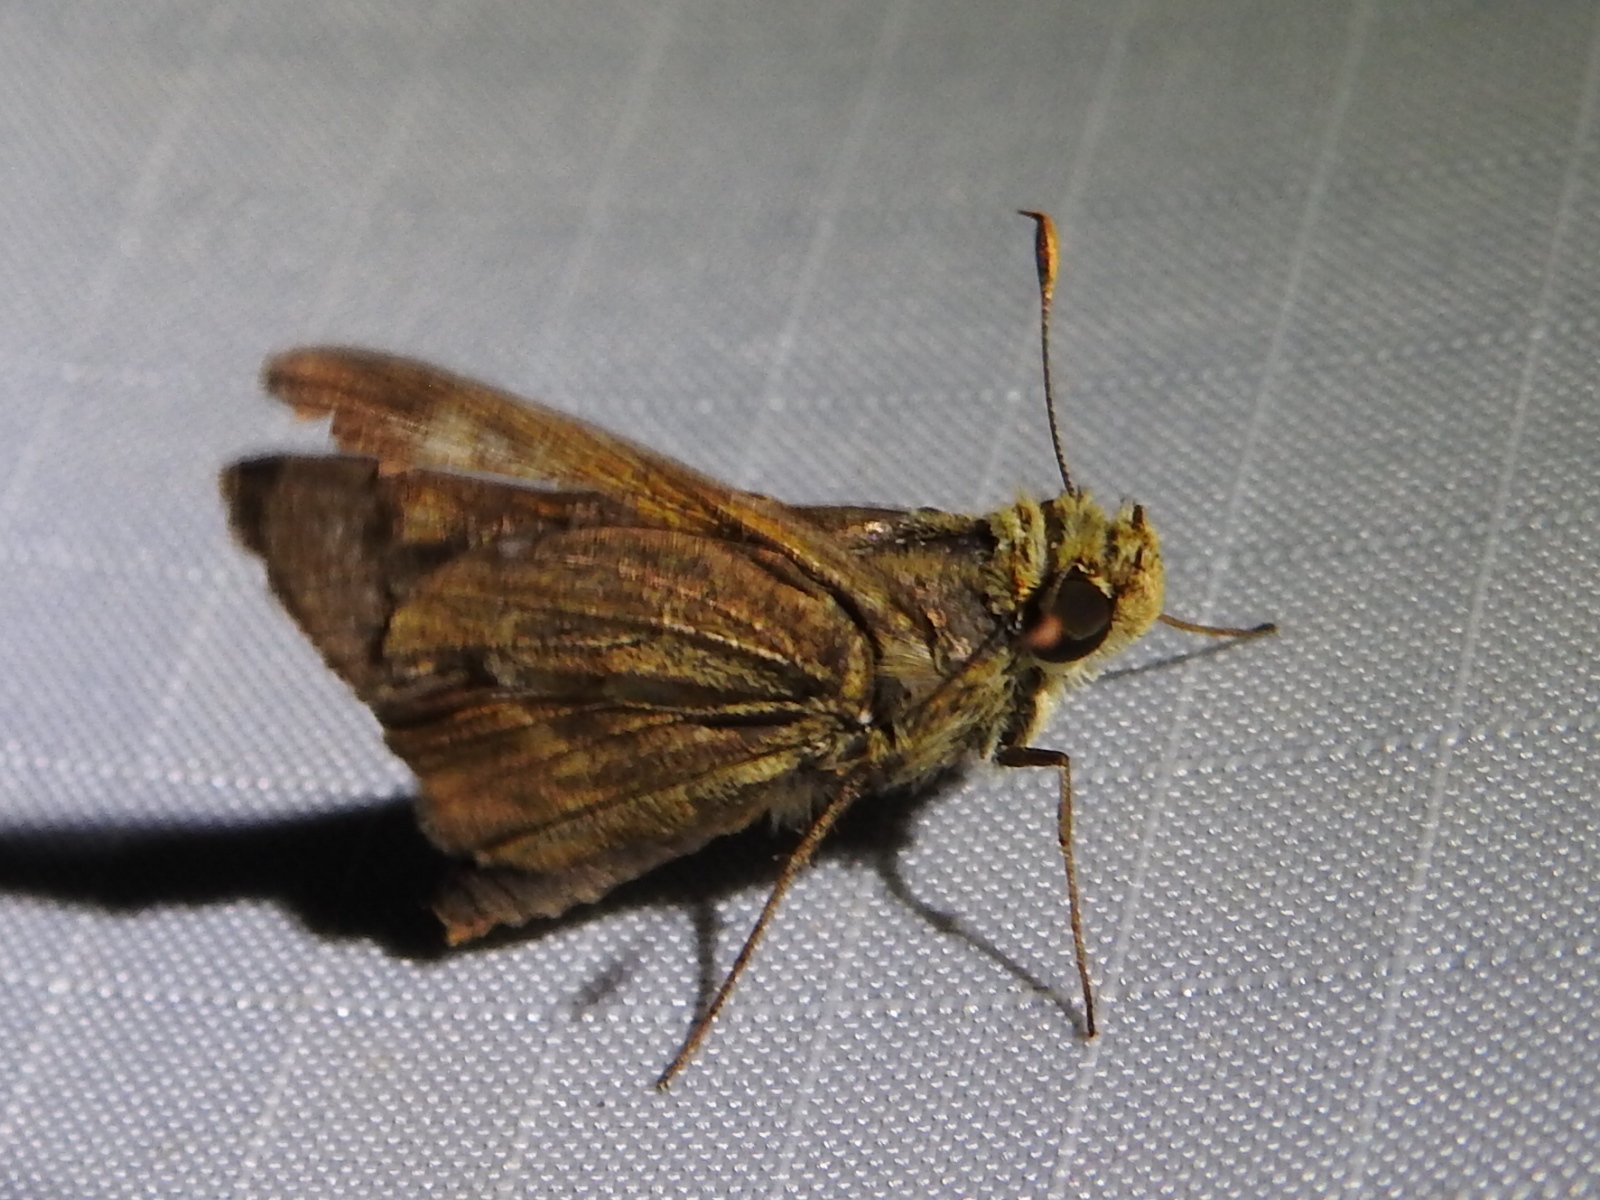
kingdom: Animalia
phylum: Arthropoda
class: Insecta
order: Lepidoptera
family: Hesperiidae
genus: Atalopedes
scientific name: Atalopedes
